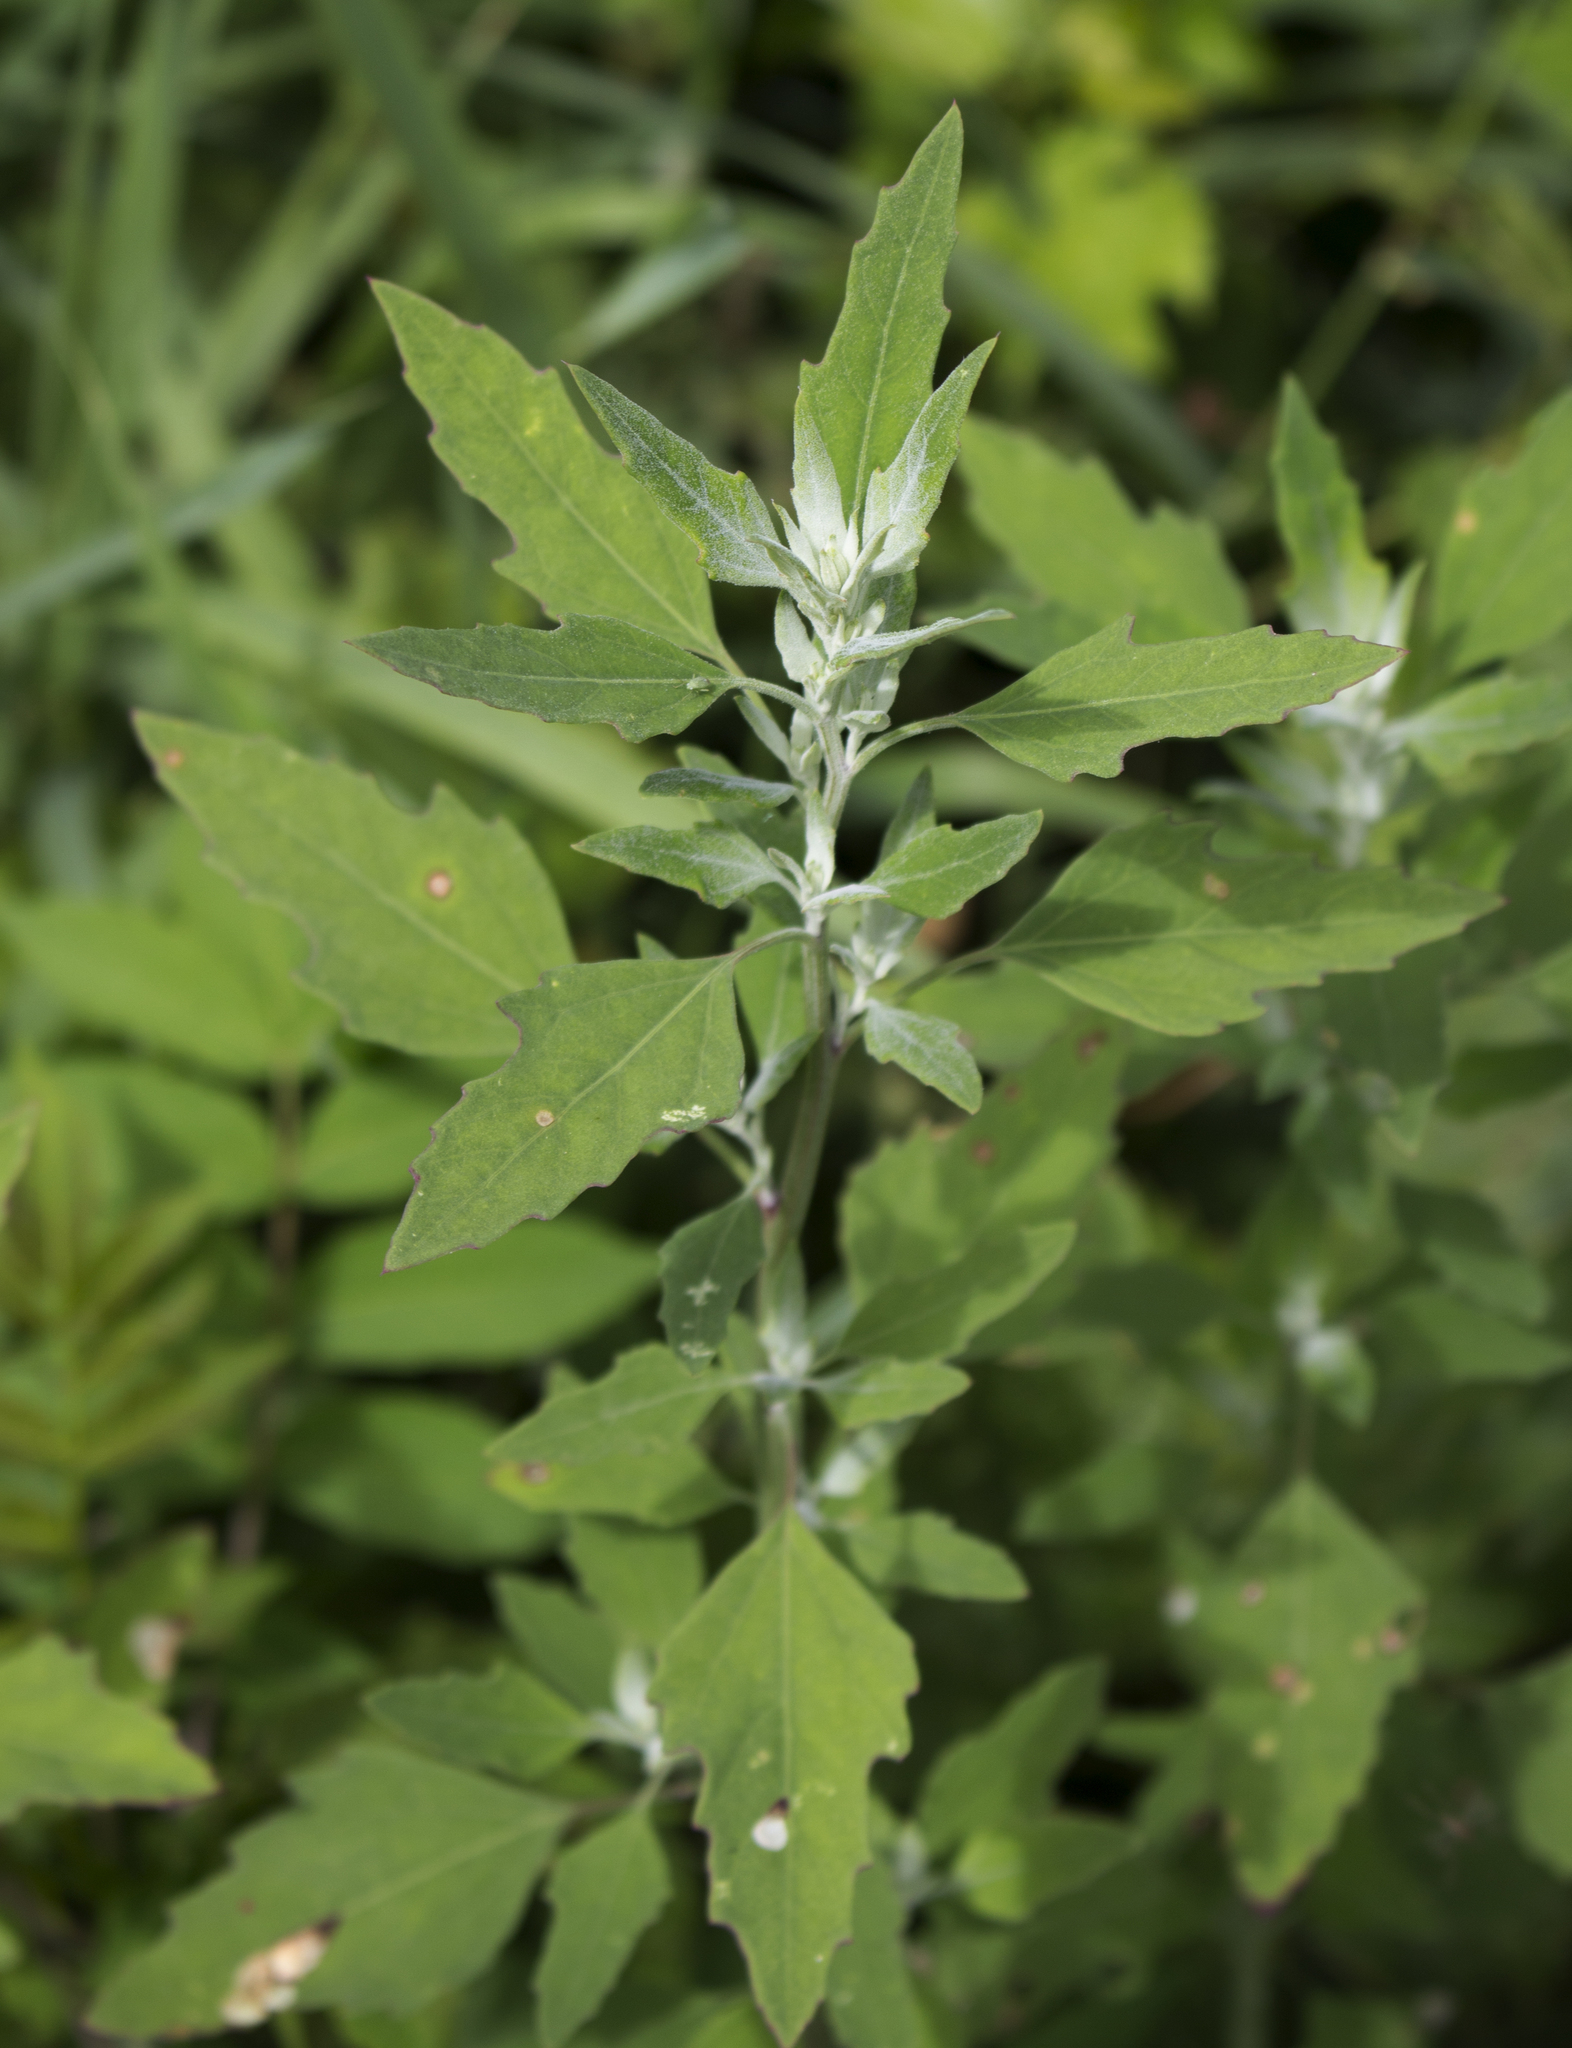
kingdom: Plantae
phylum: Tracheophyta
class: Magnoliopsida
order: Caryophyllales
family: Amaranthaceae
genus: Chenopodium
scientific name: Chenopodium album
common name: Fat-hen
